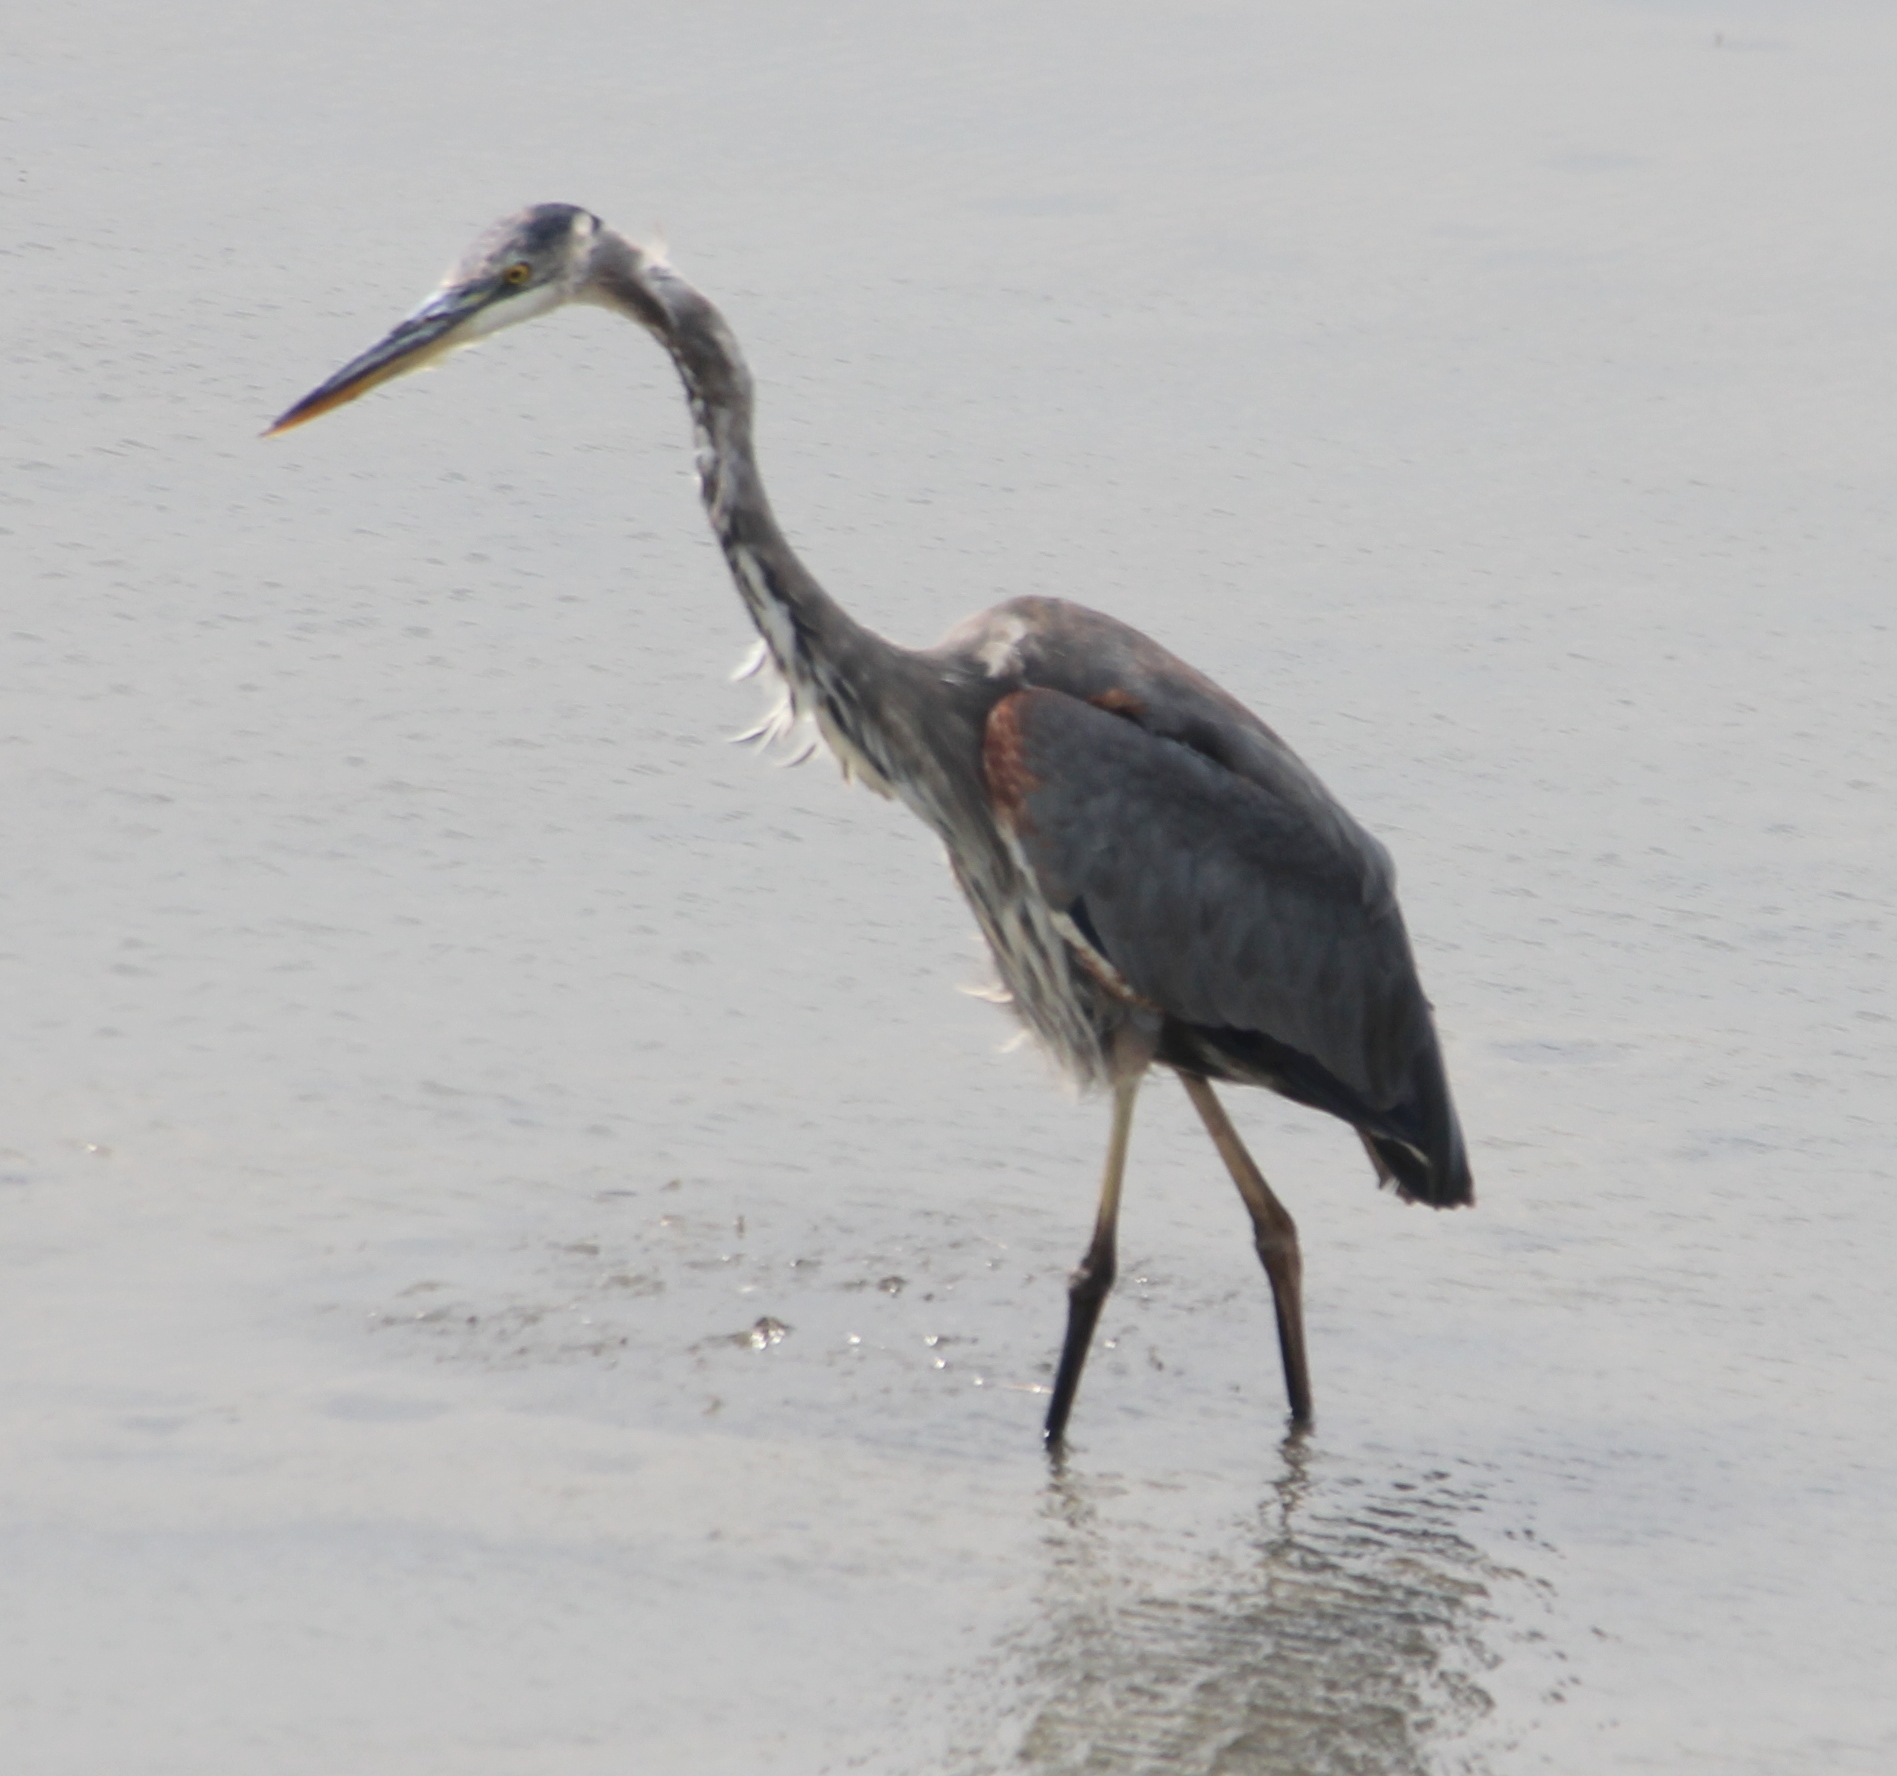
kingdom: Animalia
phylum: Chordata
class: Aves
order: Pelecaniformes
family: Ardeidae
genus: Ardea
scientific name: Ardea herodias
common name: Great blue heron
